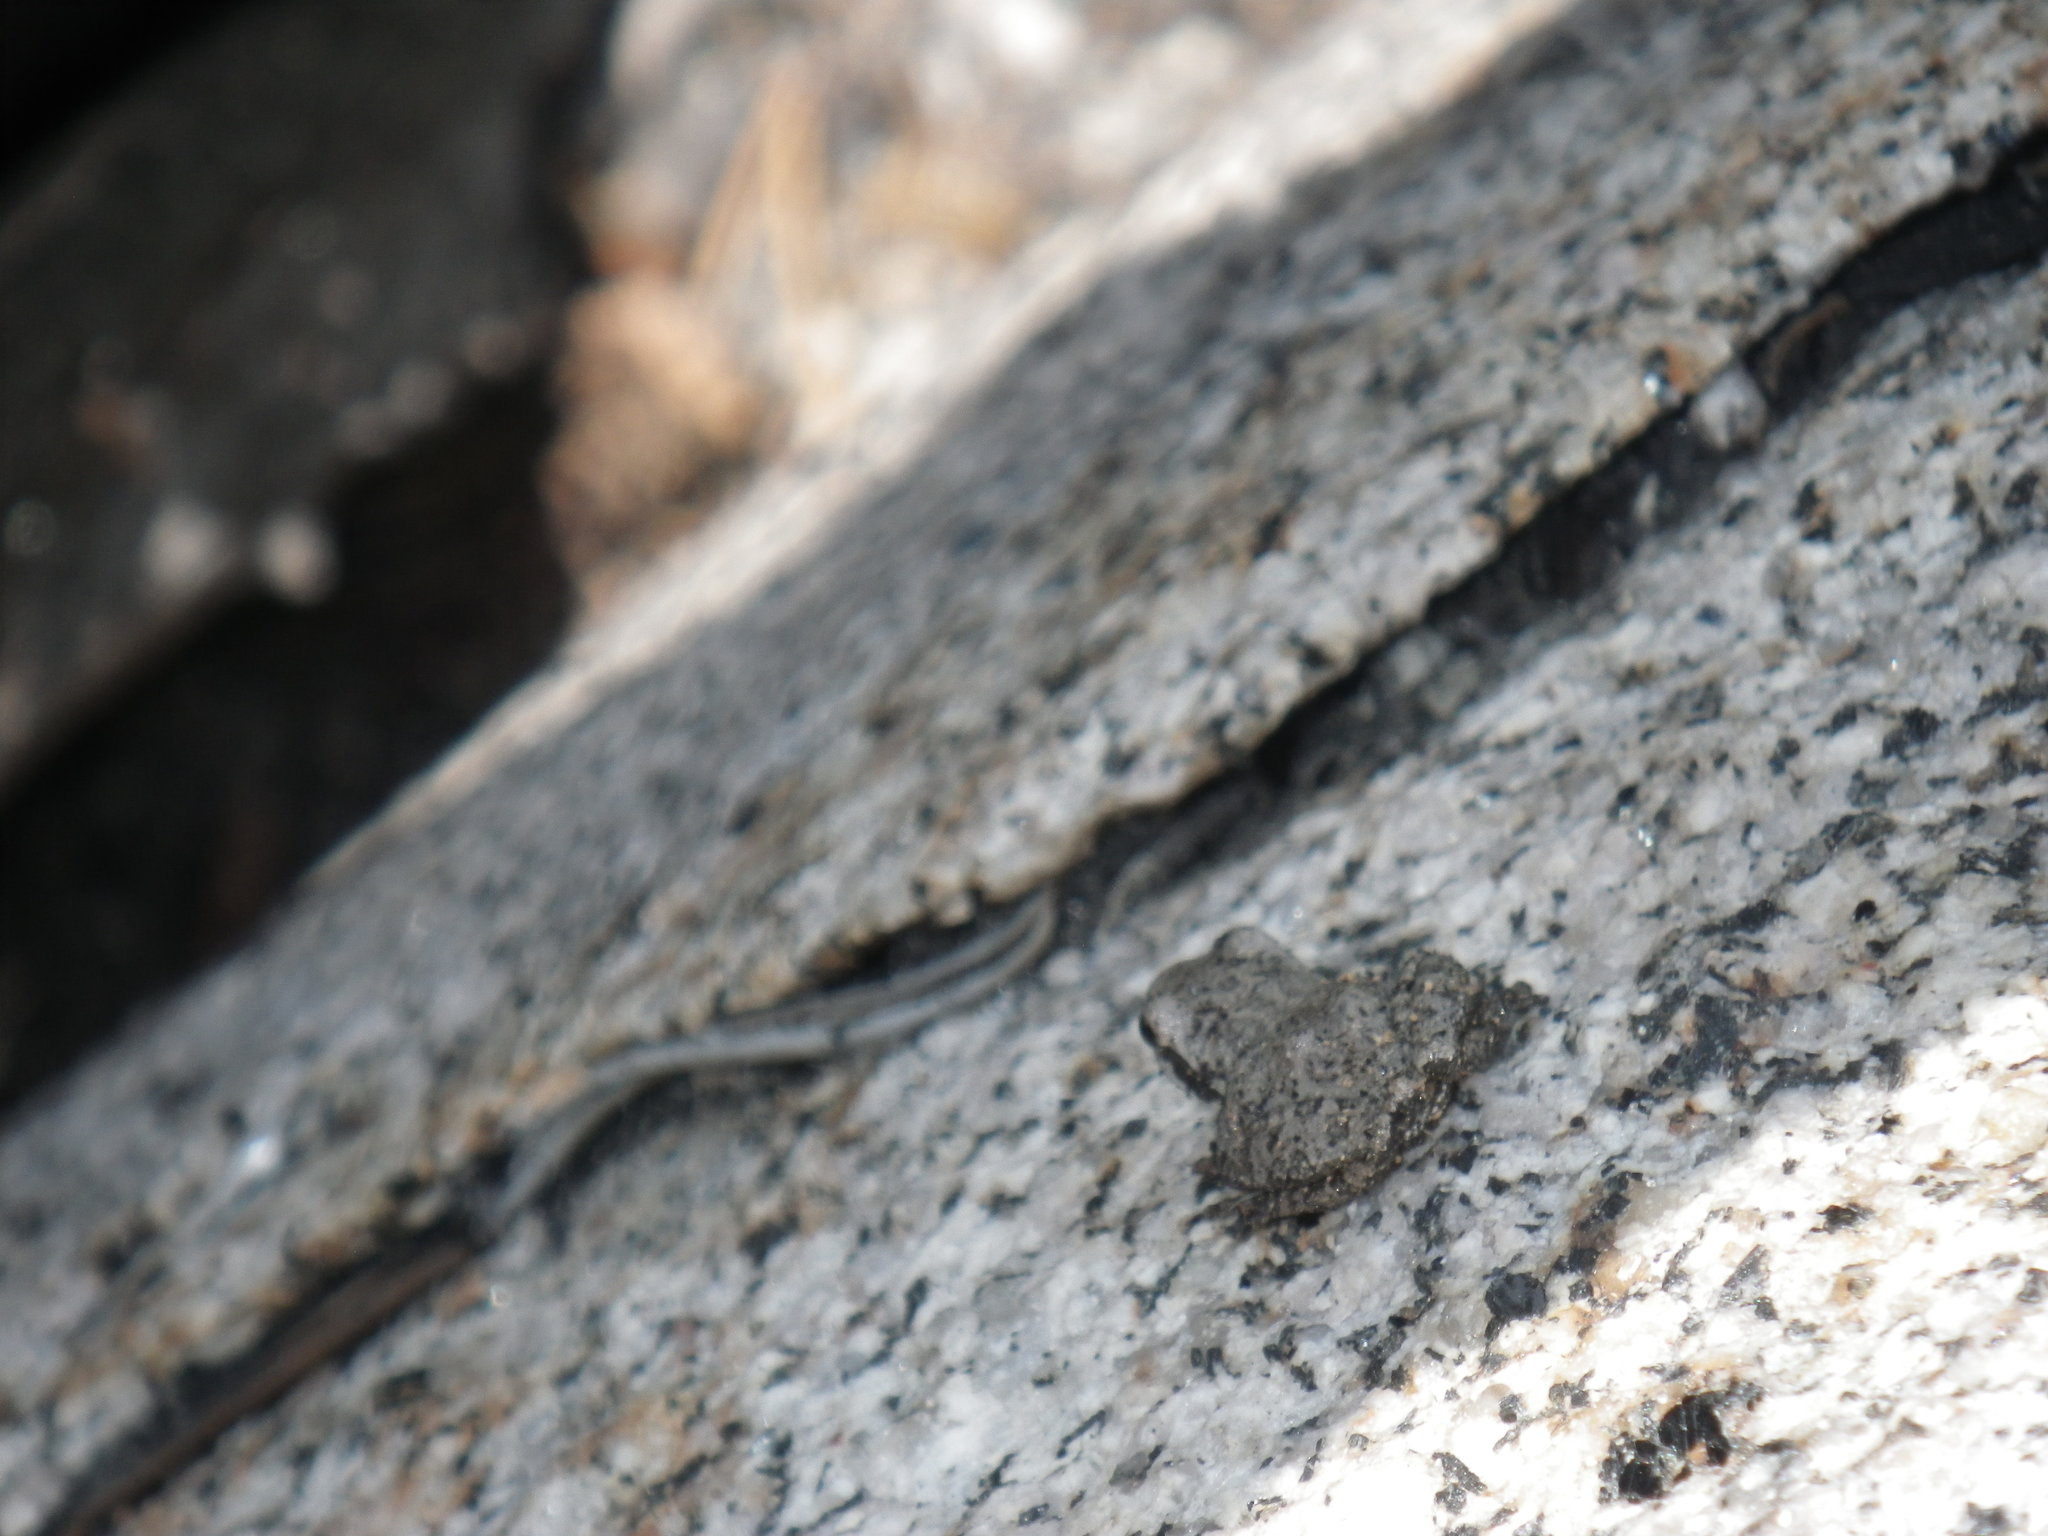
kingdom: Animalia
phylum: Chordata
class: Amphibia
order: Anura
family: Hylidae
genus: Pseudacris
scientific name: Pseudacris regilla
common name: Pacific chorus frog
